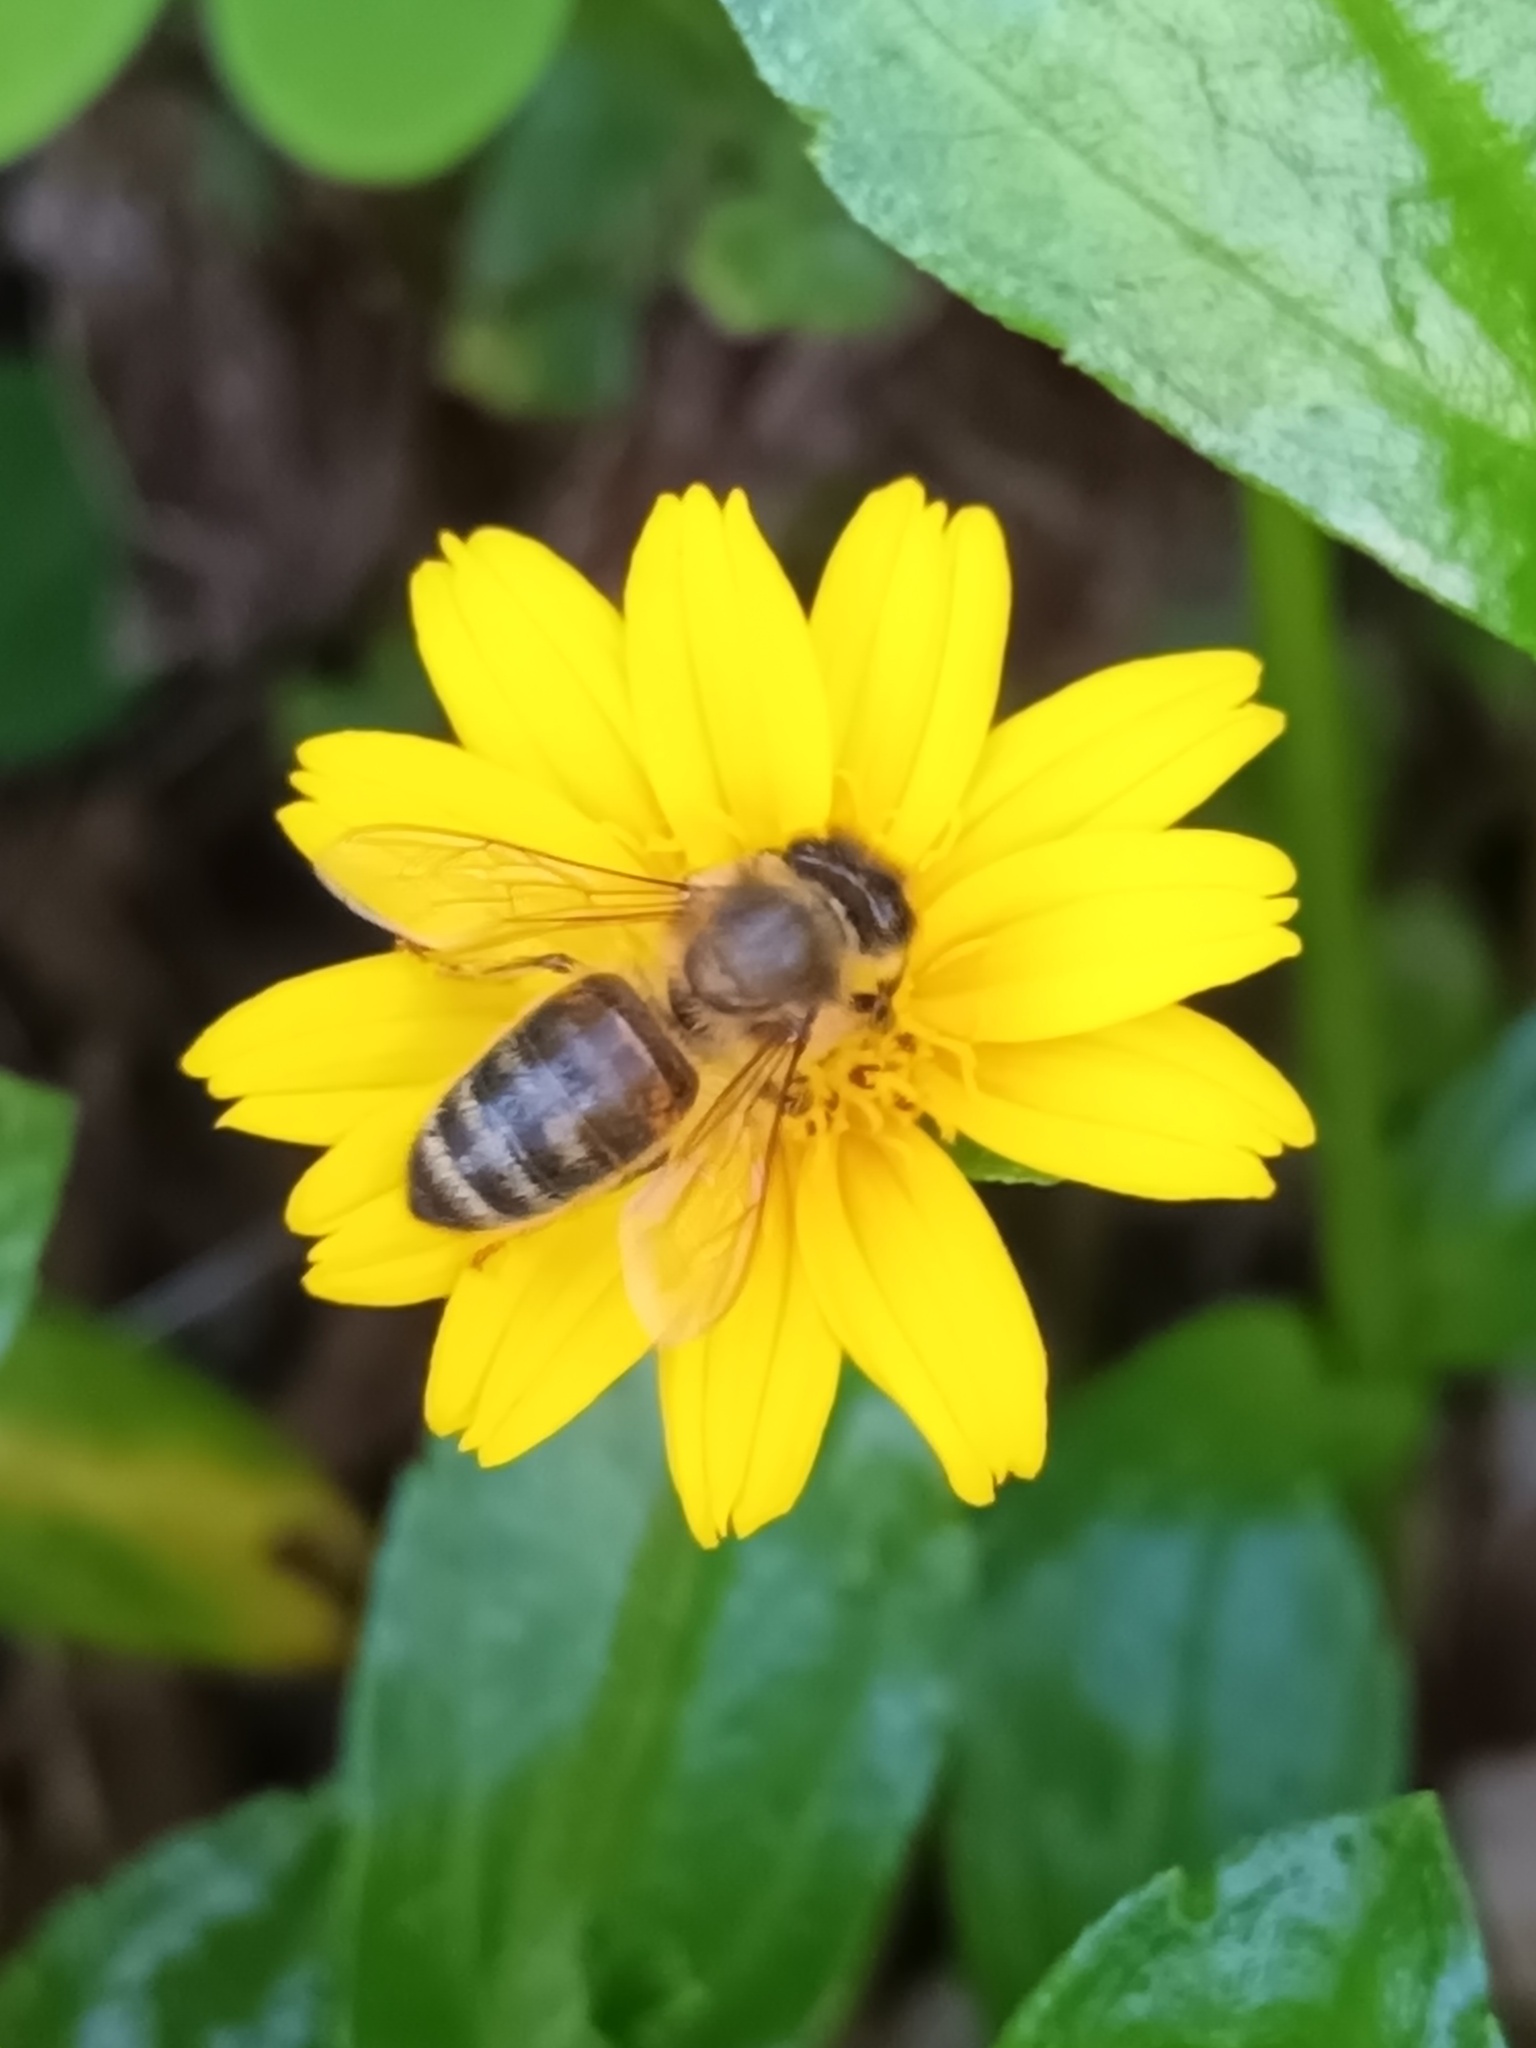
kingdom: Animalia
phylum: Arthropoda
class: Insecta
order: Hymenoptera
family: Apidae
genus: Apis
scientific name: Apis mellifera
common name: Honey bee
